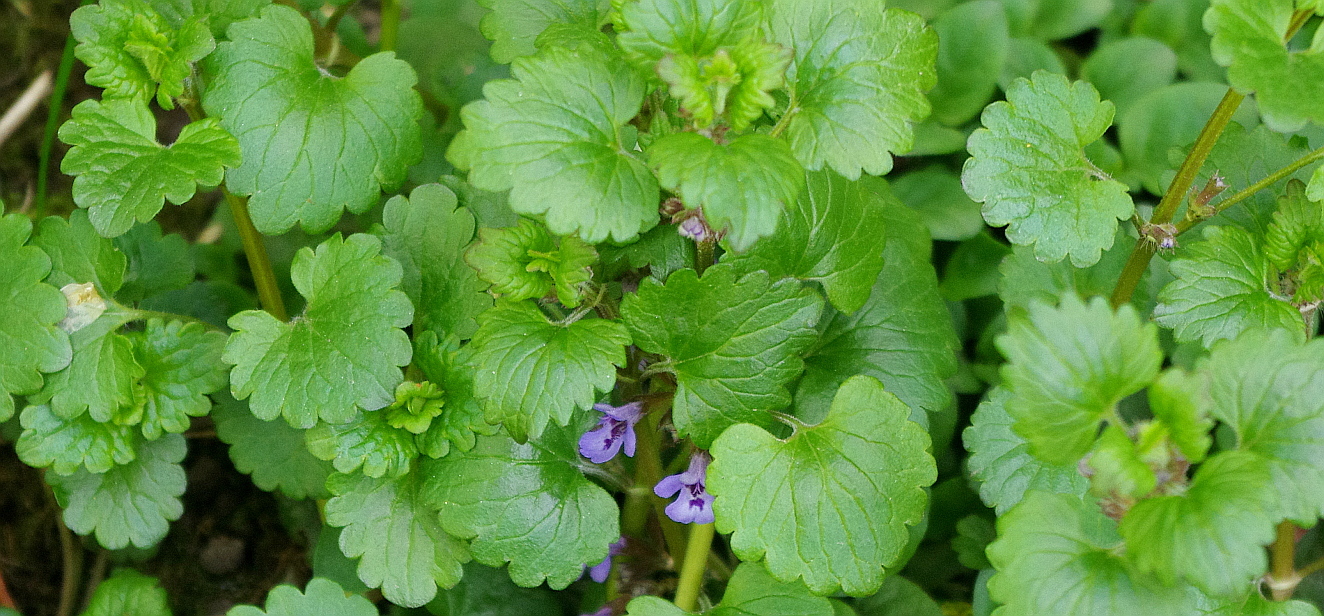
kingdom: Plantae
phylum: Tracheophyta
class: Magnoliopsida
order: Lamiales
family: Lamiaceae
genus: Glechoma
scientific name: Glechoma hederacea
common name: Ground ivy
